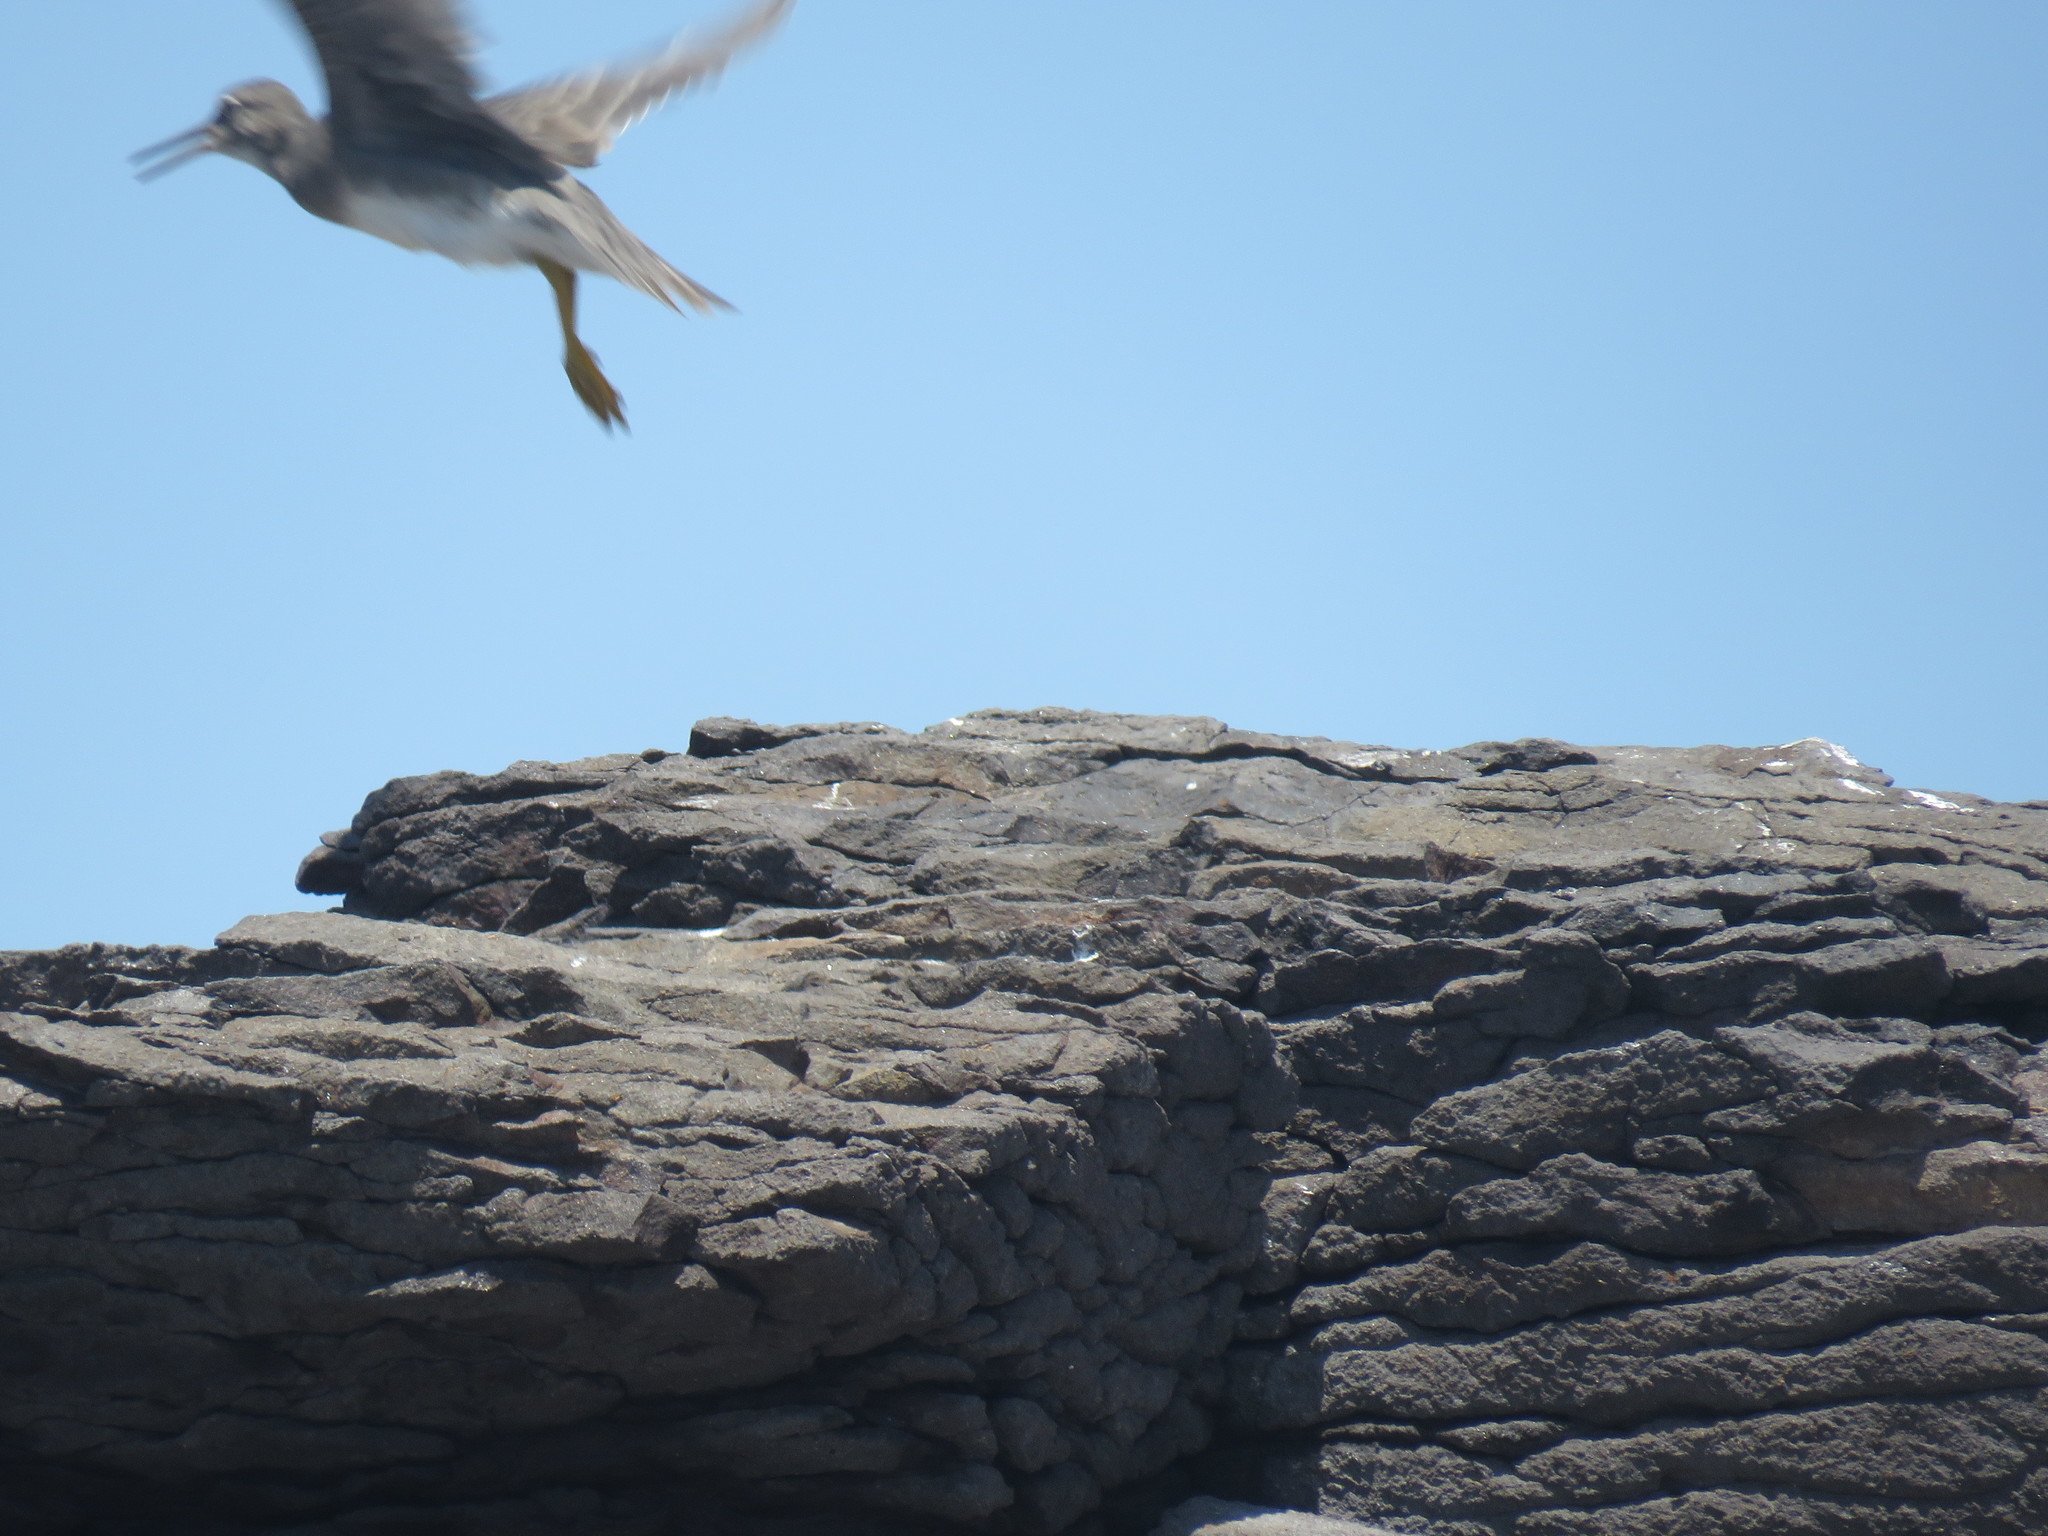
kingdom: Animalia
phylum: Chordata
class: Aves
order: Charadriiformes
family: Scolopacidae
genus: Tringa
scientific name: Tringa incana
